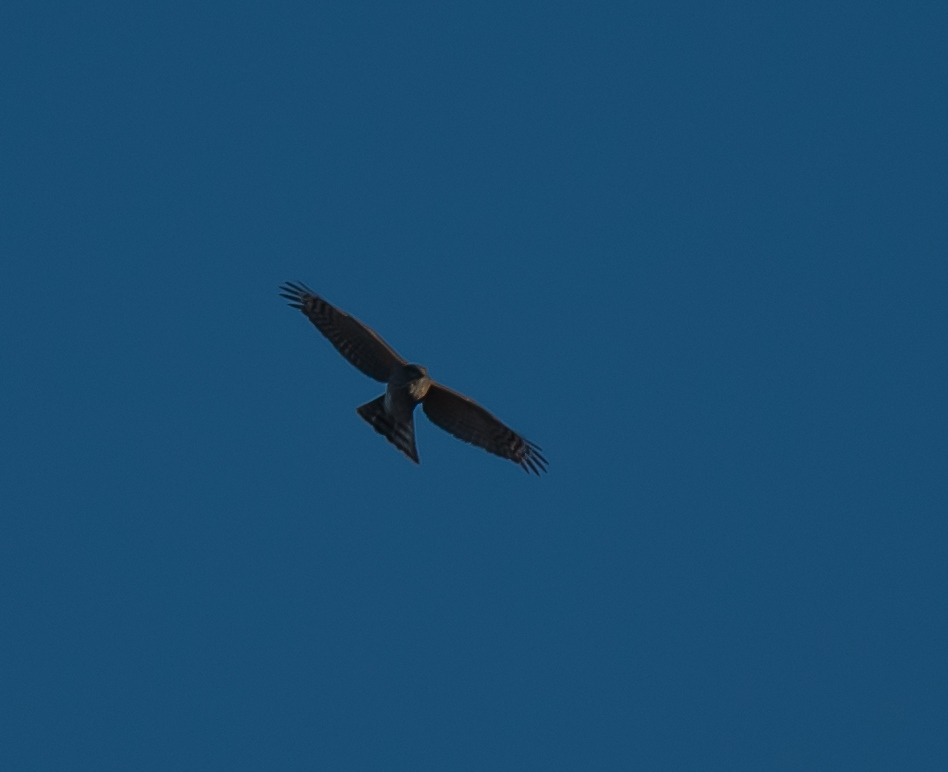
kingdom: Animalia
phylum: Chordata
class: Aves
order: Accipitriformes
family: Accipitridae
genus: Accipiter
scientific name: Accipiter striatus
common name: Sharp-shinned hawk
